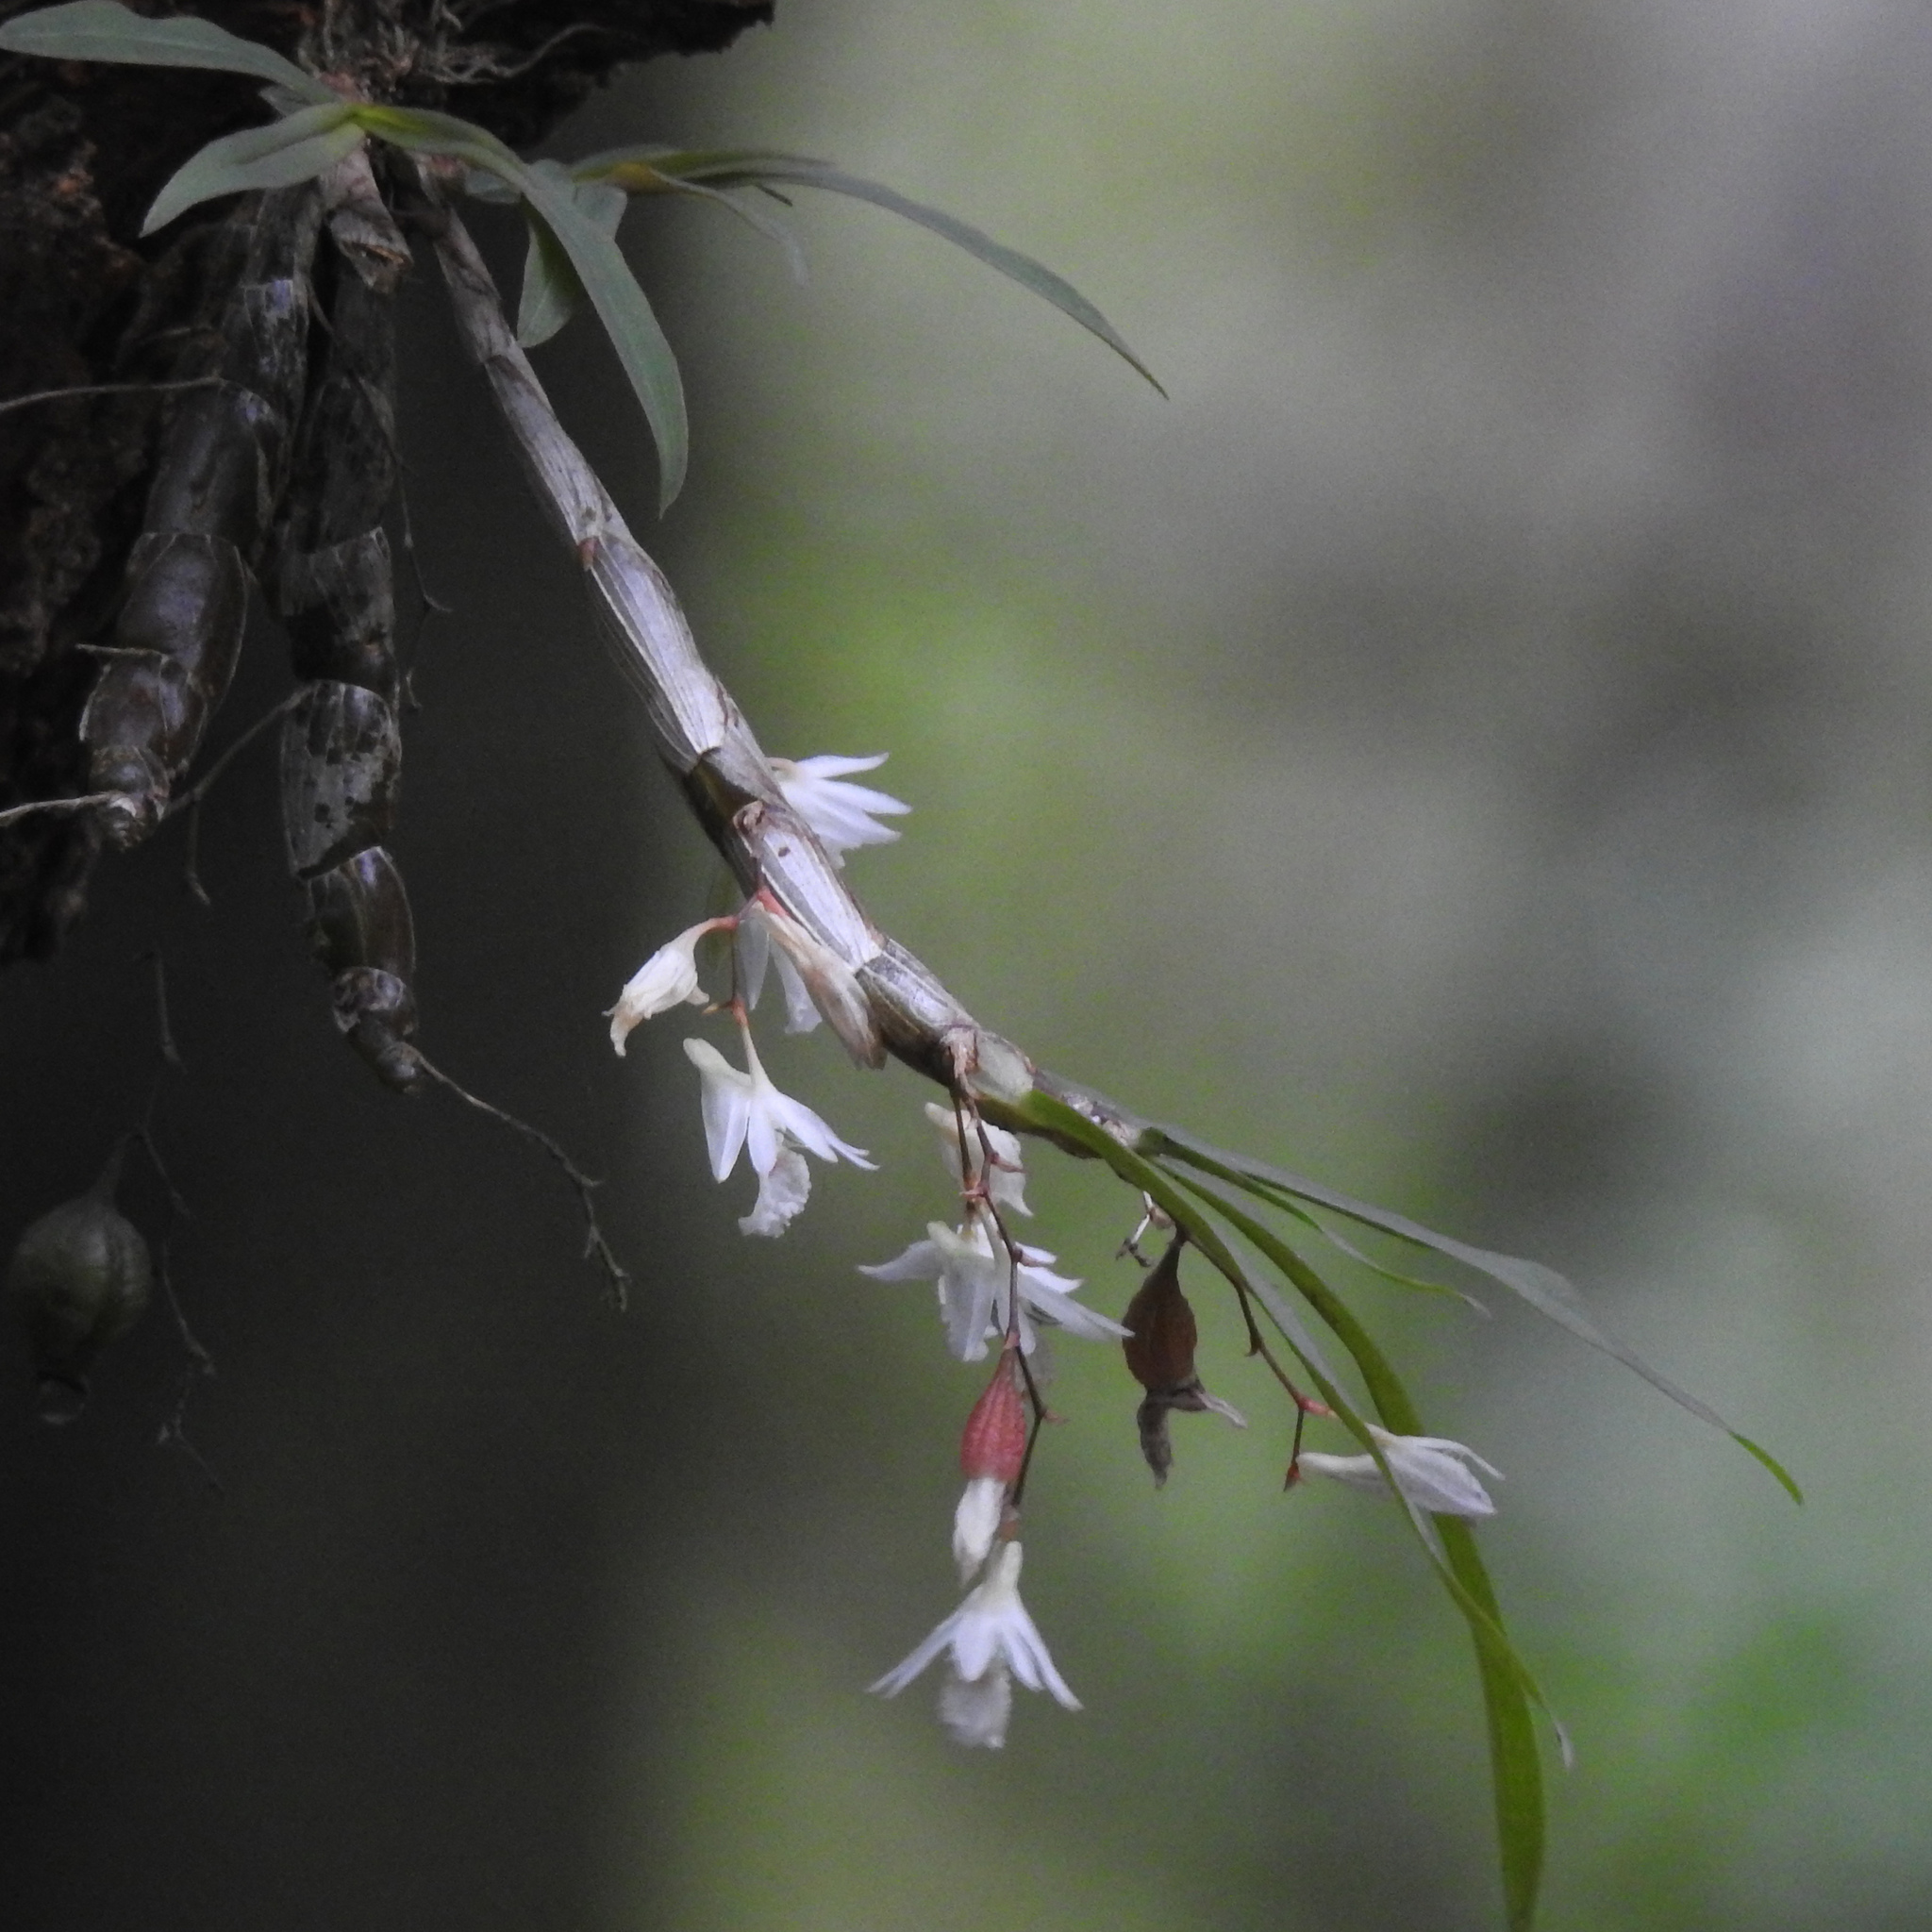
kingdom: Plantae
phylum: Tracheophyta
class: Liliopsida
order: Asparagales
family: Orchidaceae
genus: Dendrobium
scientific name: Dendrobium panduratum
